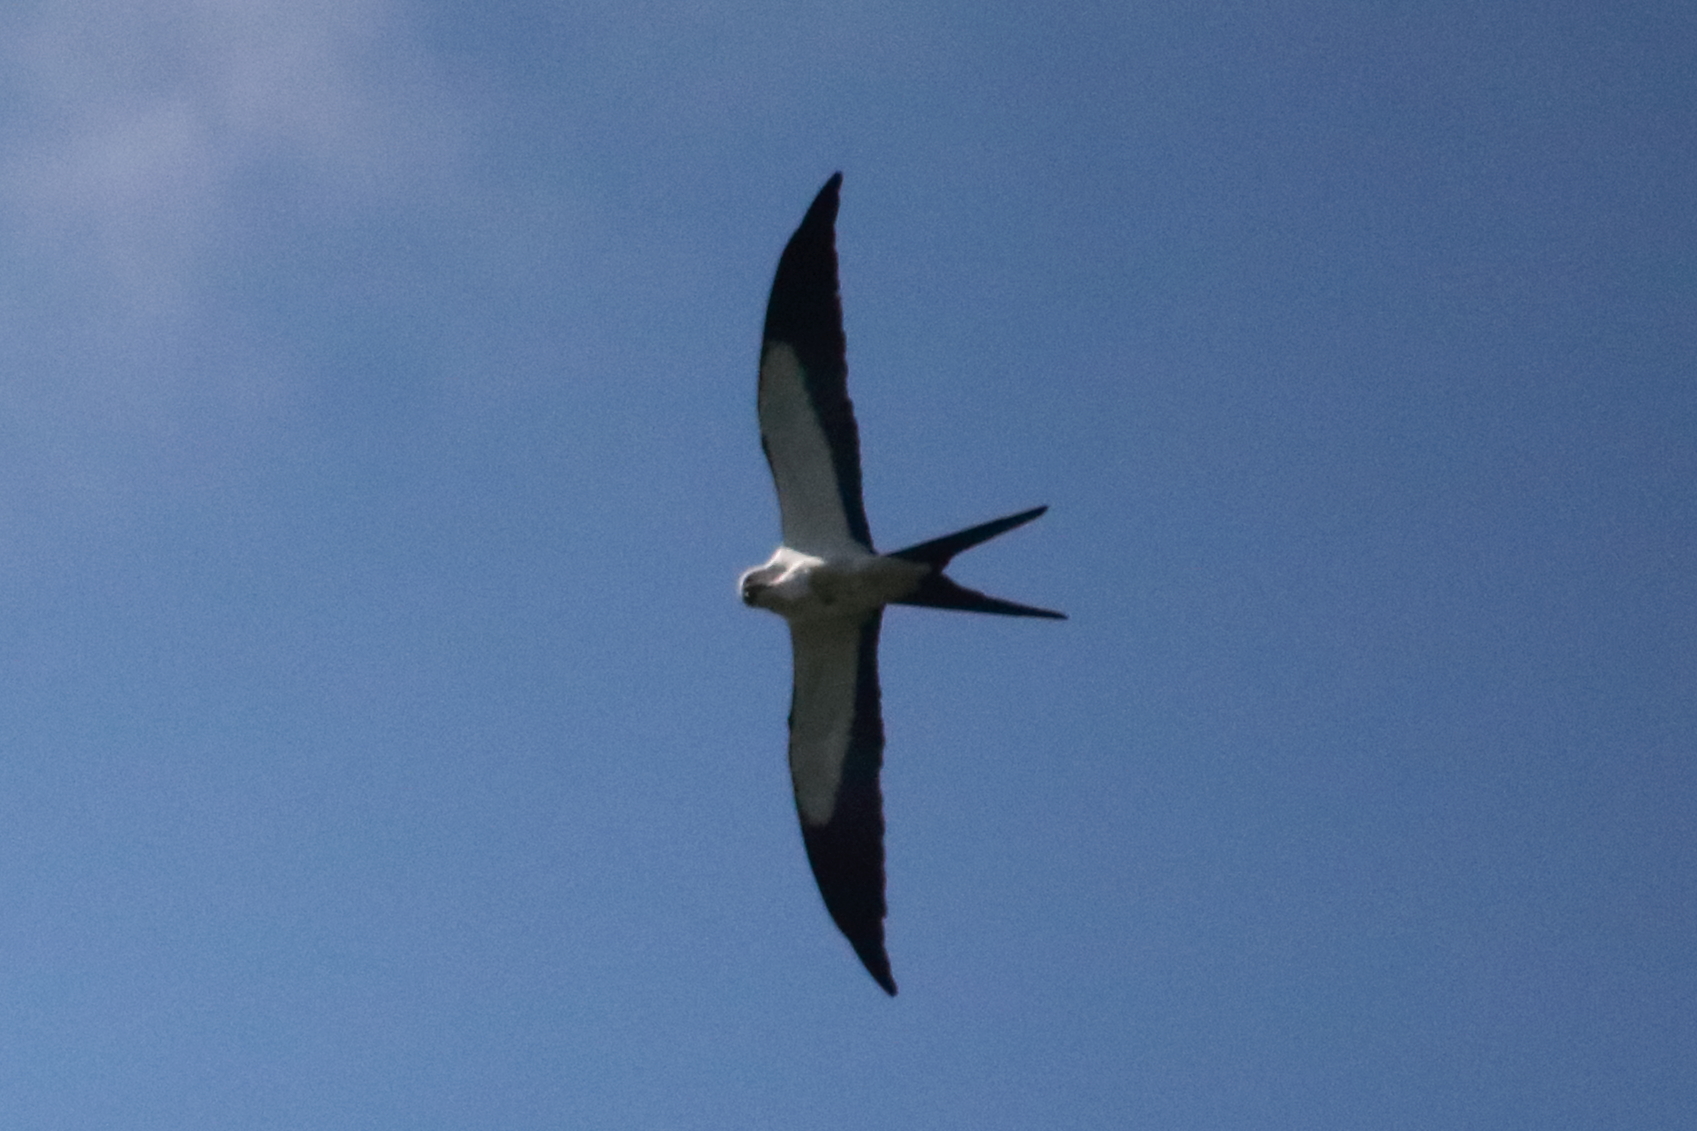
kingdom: Animalia
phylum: Chordata
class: Aves
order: Accipitriformes
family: Accipitridae
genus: Elanoides
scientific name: Elanoides forficatus
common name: Swallow-tailed kite
